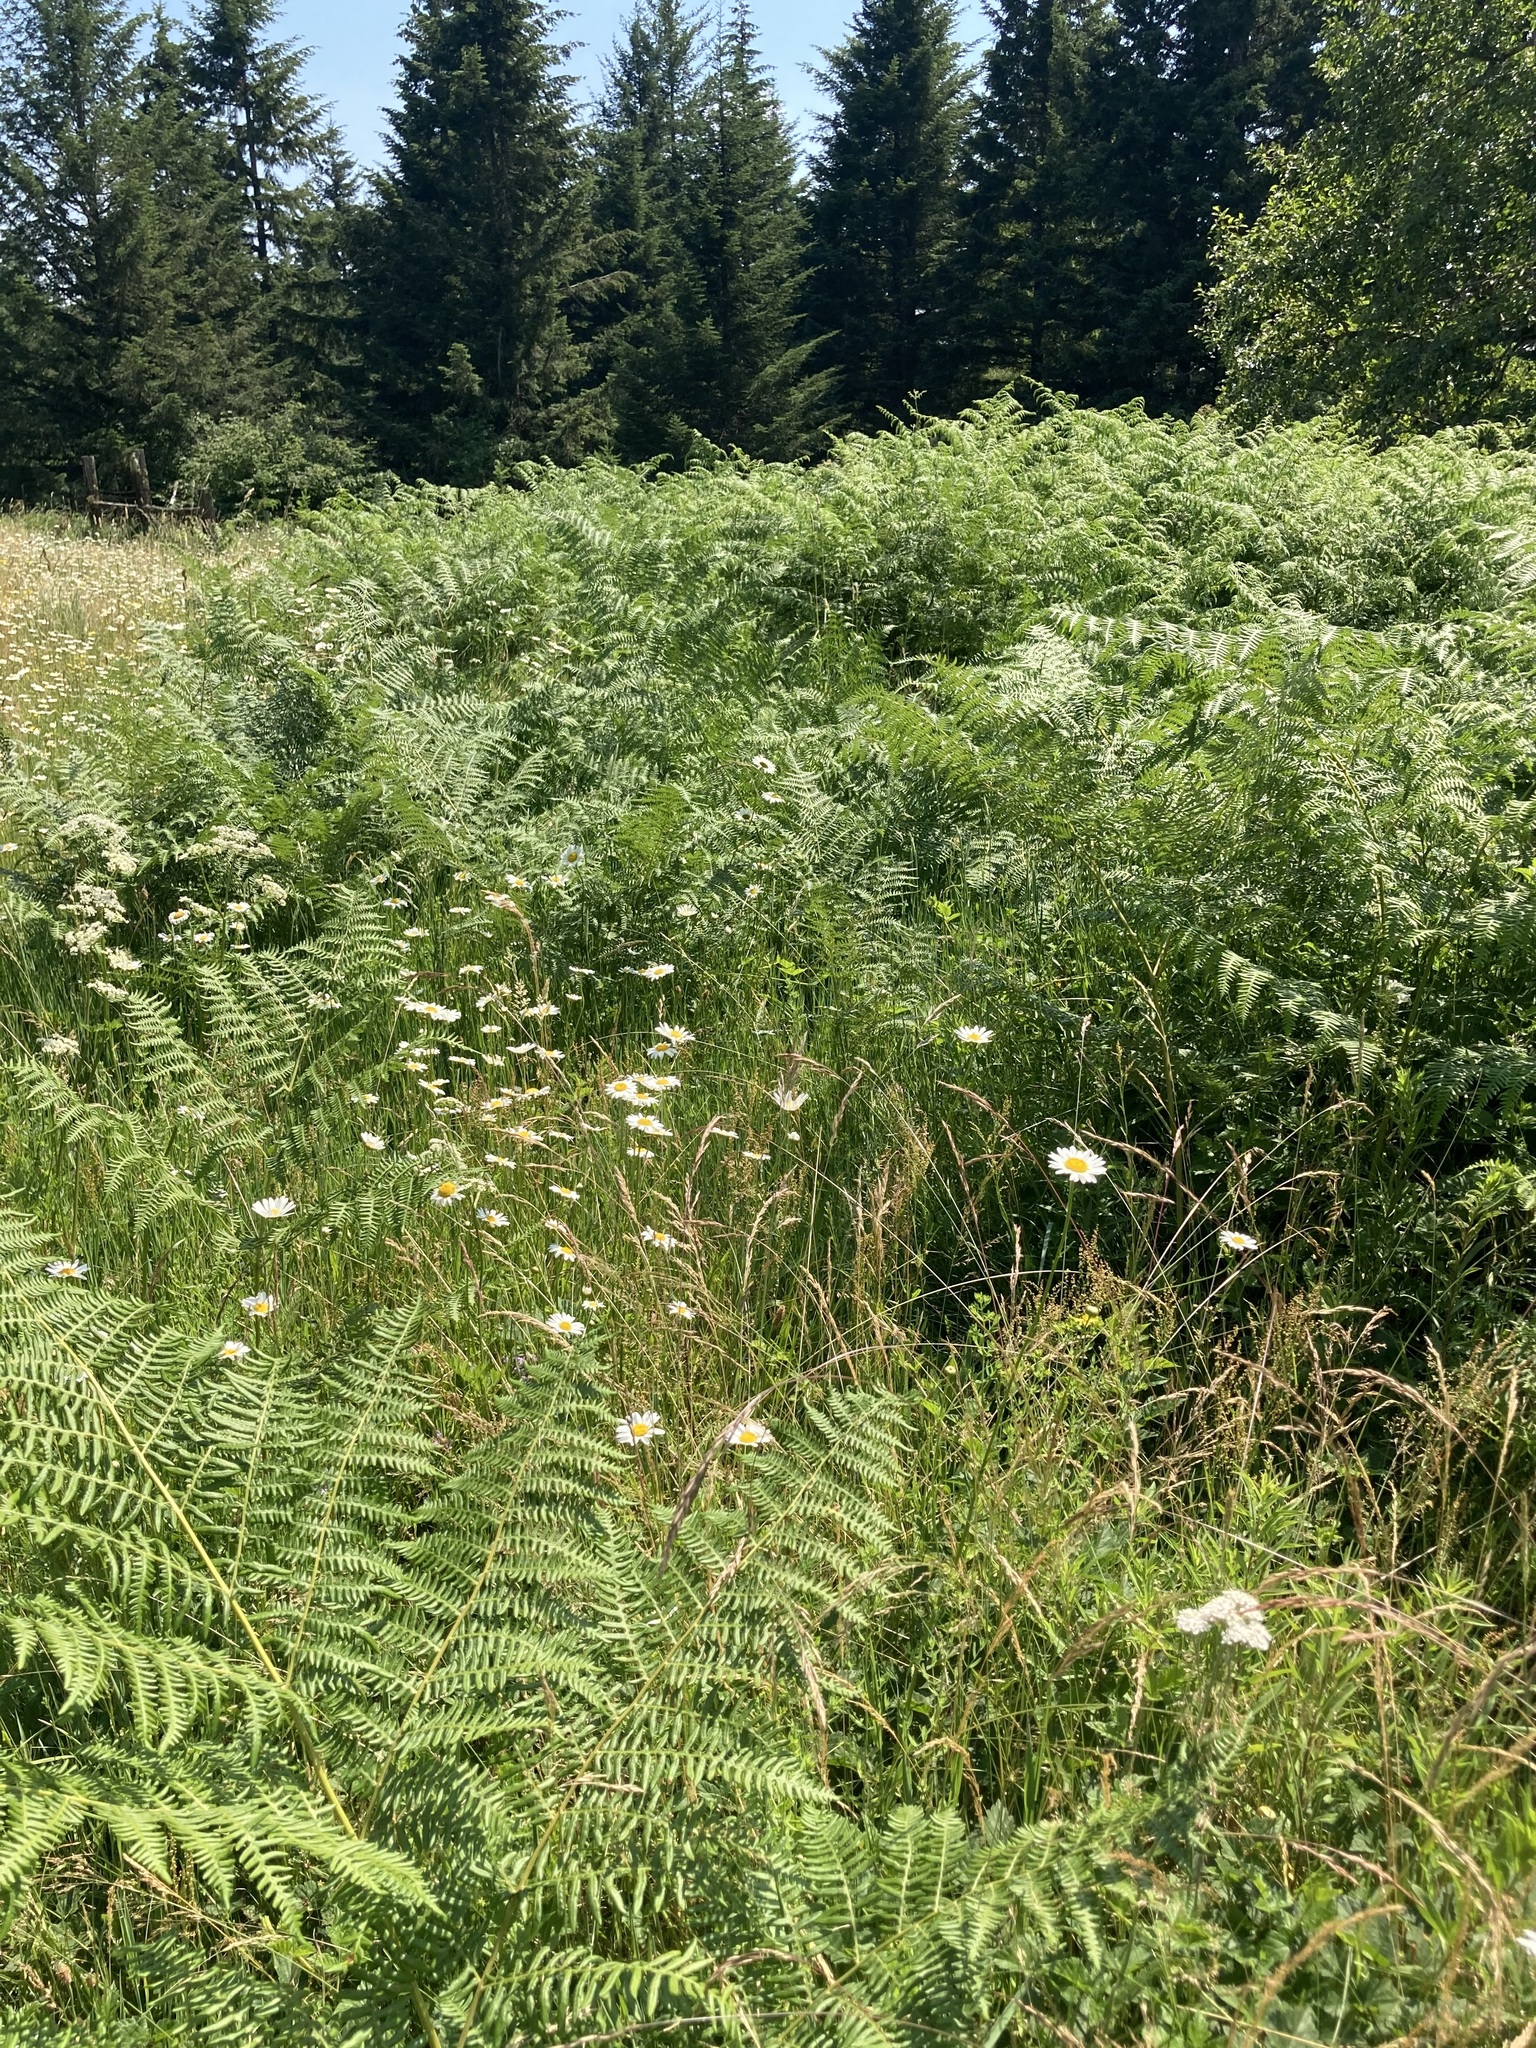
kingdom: Plantae
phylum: Tracheophyta
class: Polypodiopsida
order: Polypodiales
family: Dennstaedtiaceae
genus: Pteridium
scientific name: Pteridium aquilinum
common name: Bracken
